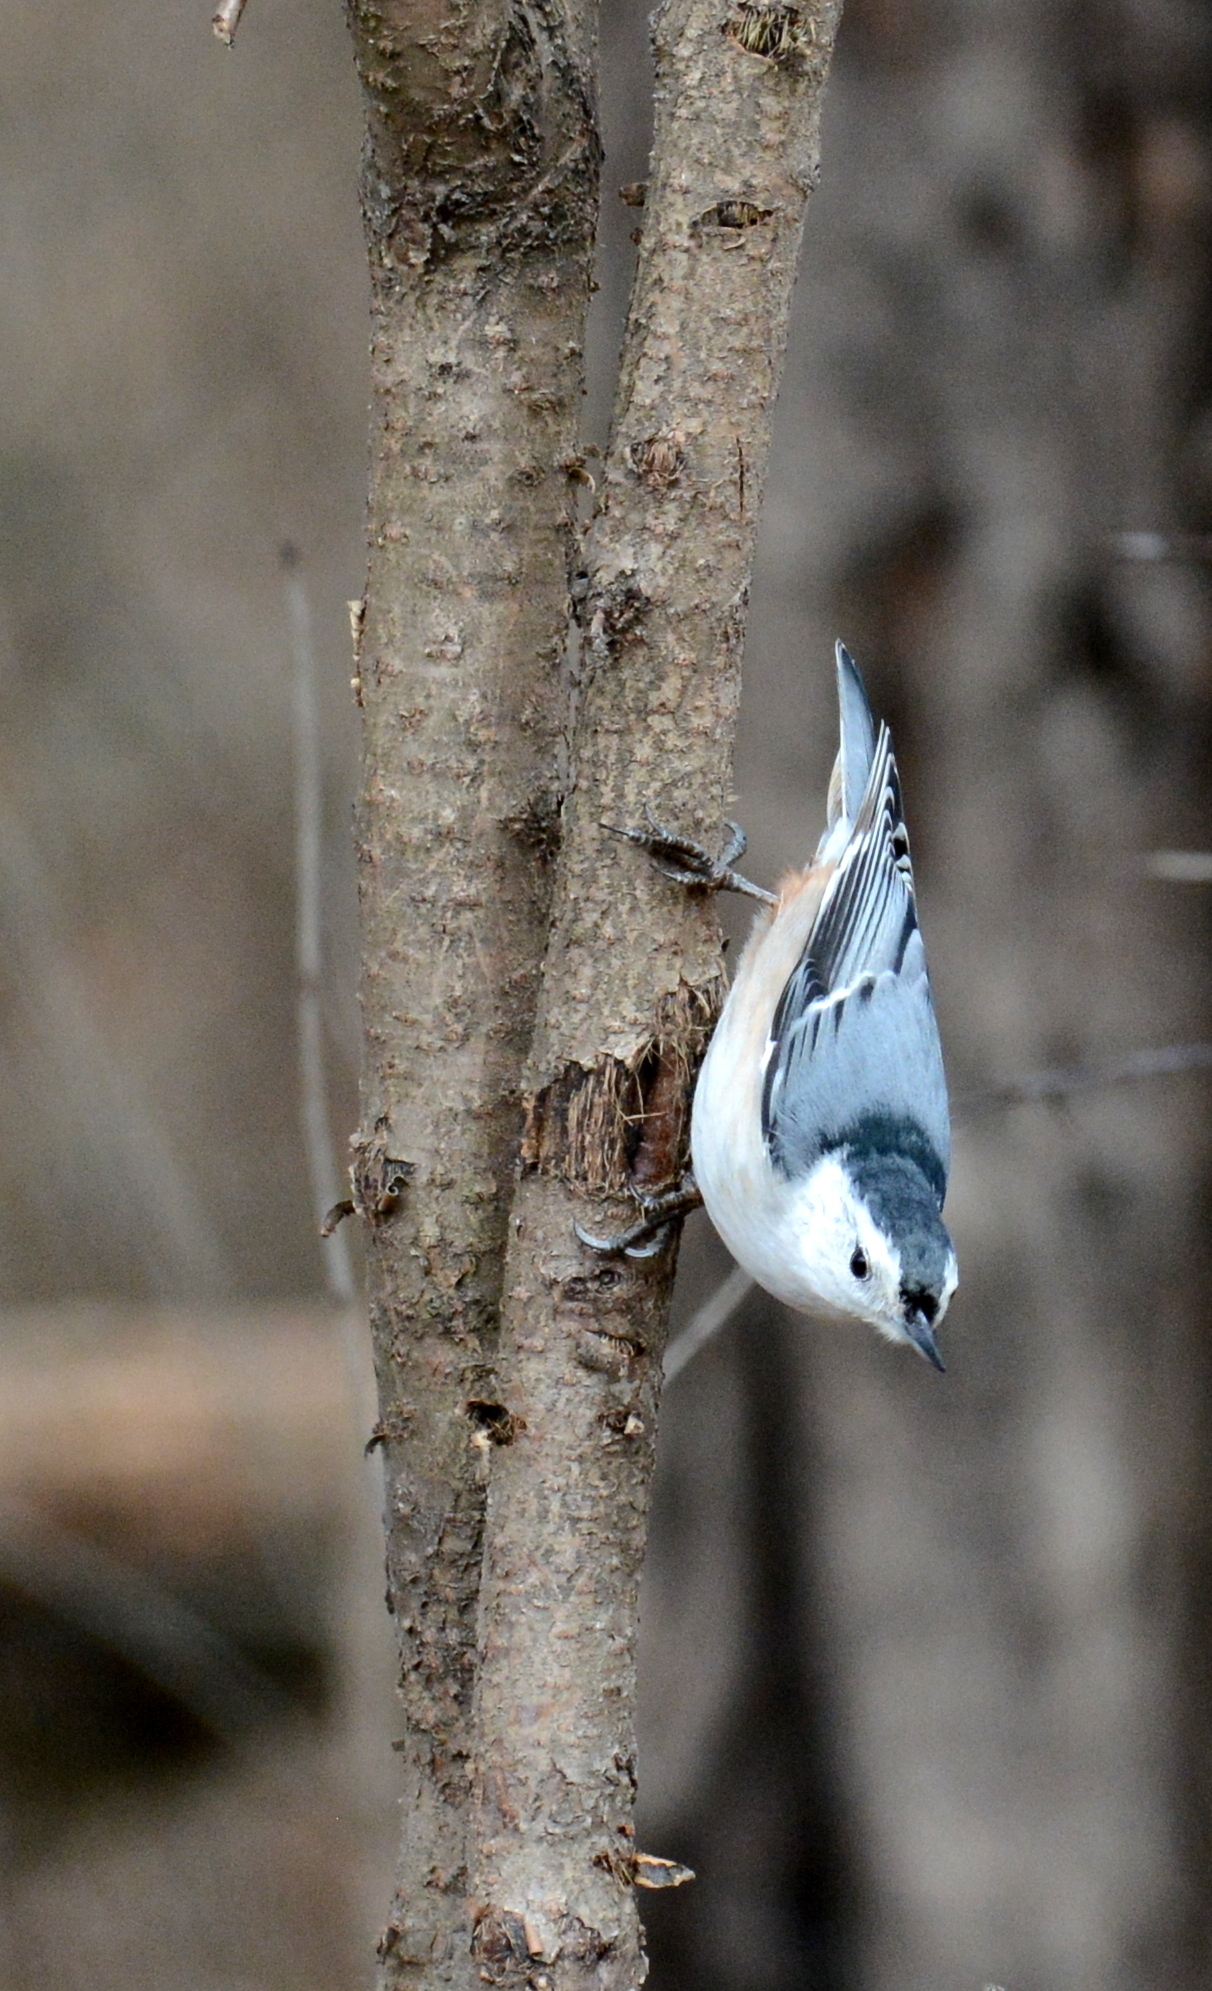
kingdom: Animalia
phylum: Chordata
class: Aves
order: Passeriformes
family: Sittidae
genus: Sitta
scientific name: Sitta carolinensis
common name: White-breasted nuthatch
